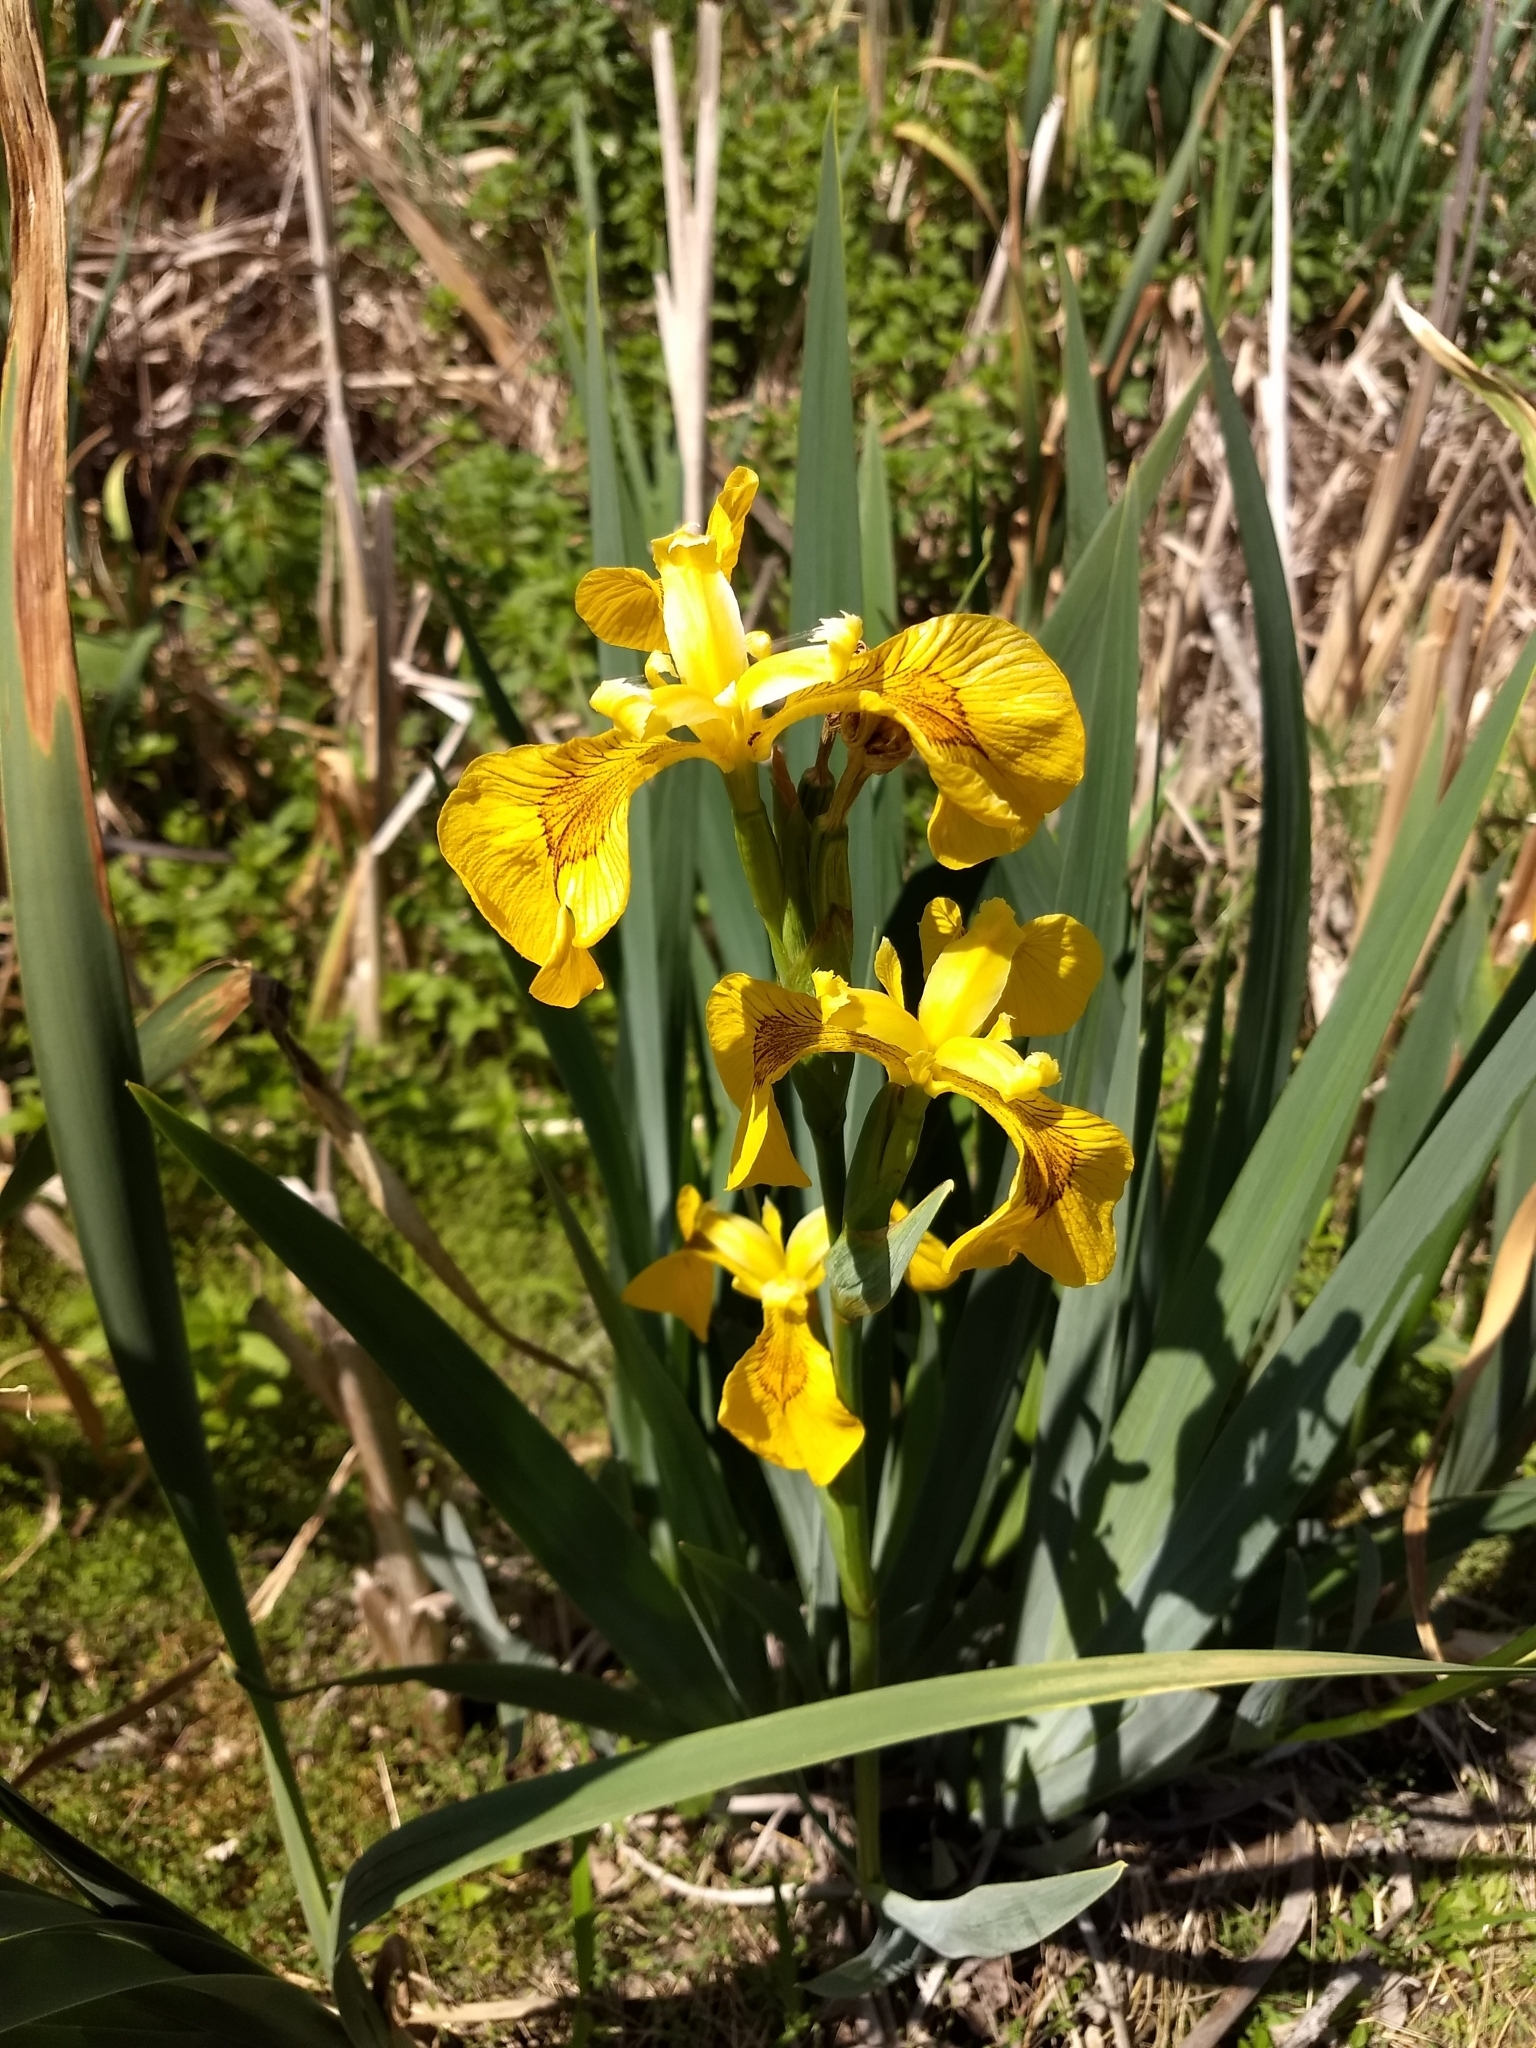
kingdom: Plantae
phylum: Tracheophyta
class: Liliopsida
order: Asparagales
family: Iridaceae
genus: Iris
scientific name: Iris pseudacorus
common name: Yellow flag
